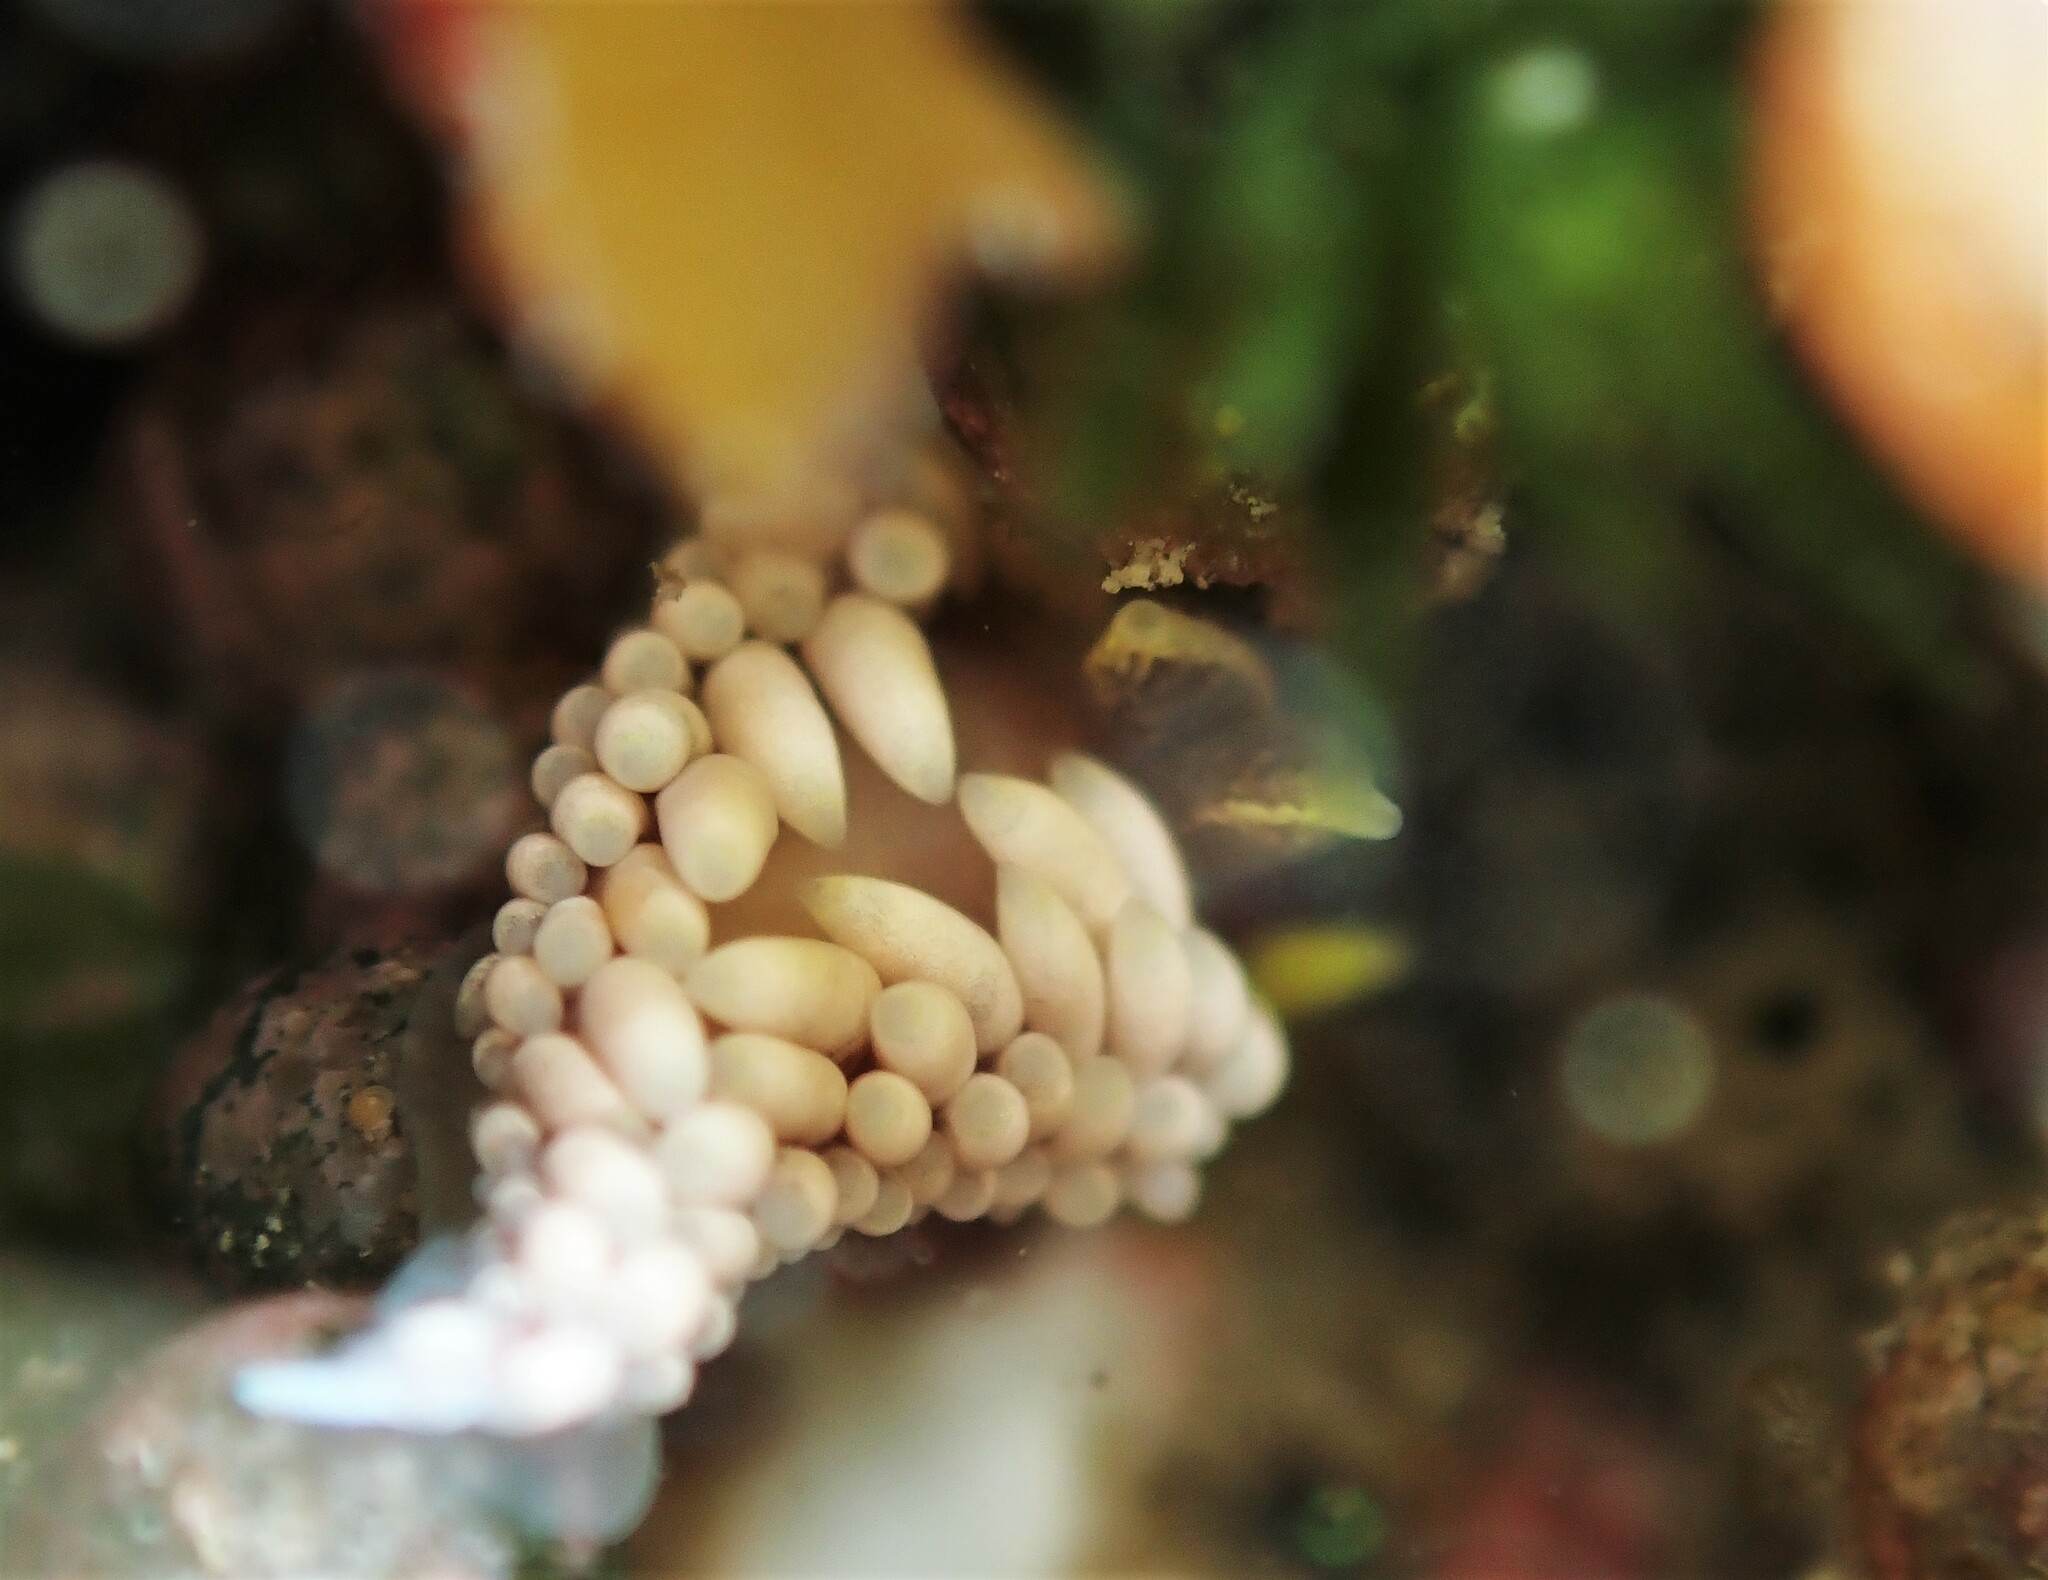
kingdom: Animalia
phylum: Mollusca
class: Gastropoda
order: Nudibranchia
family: Babakinidae
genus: Babakina
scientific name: Babakina caprinsulensis
